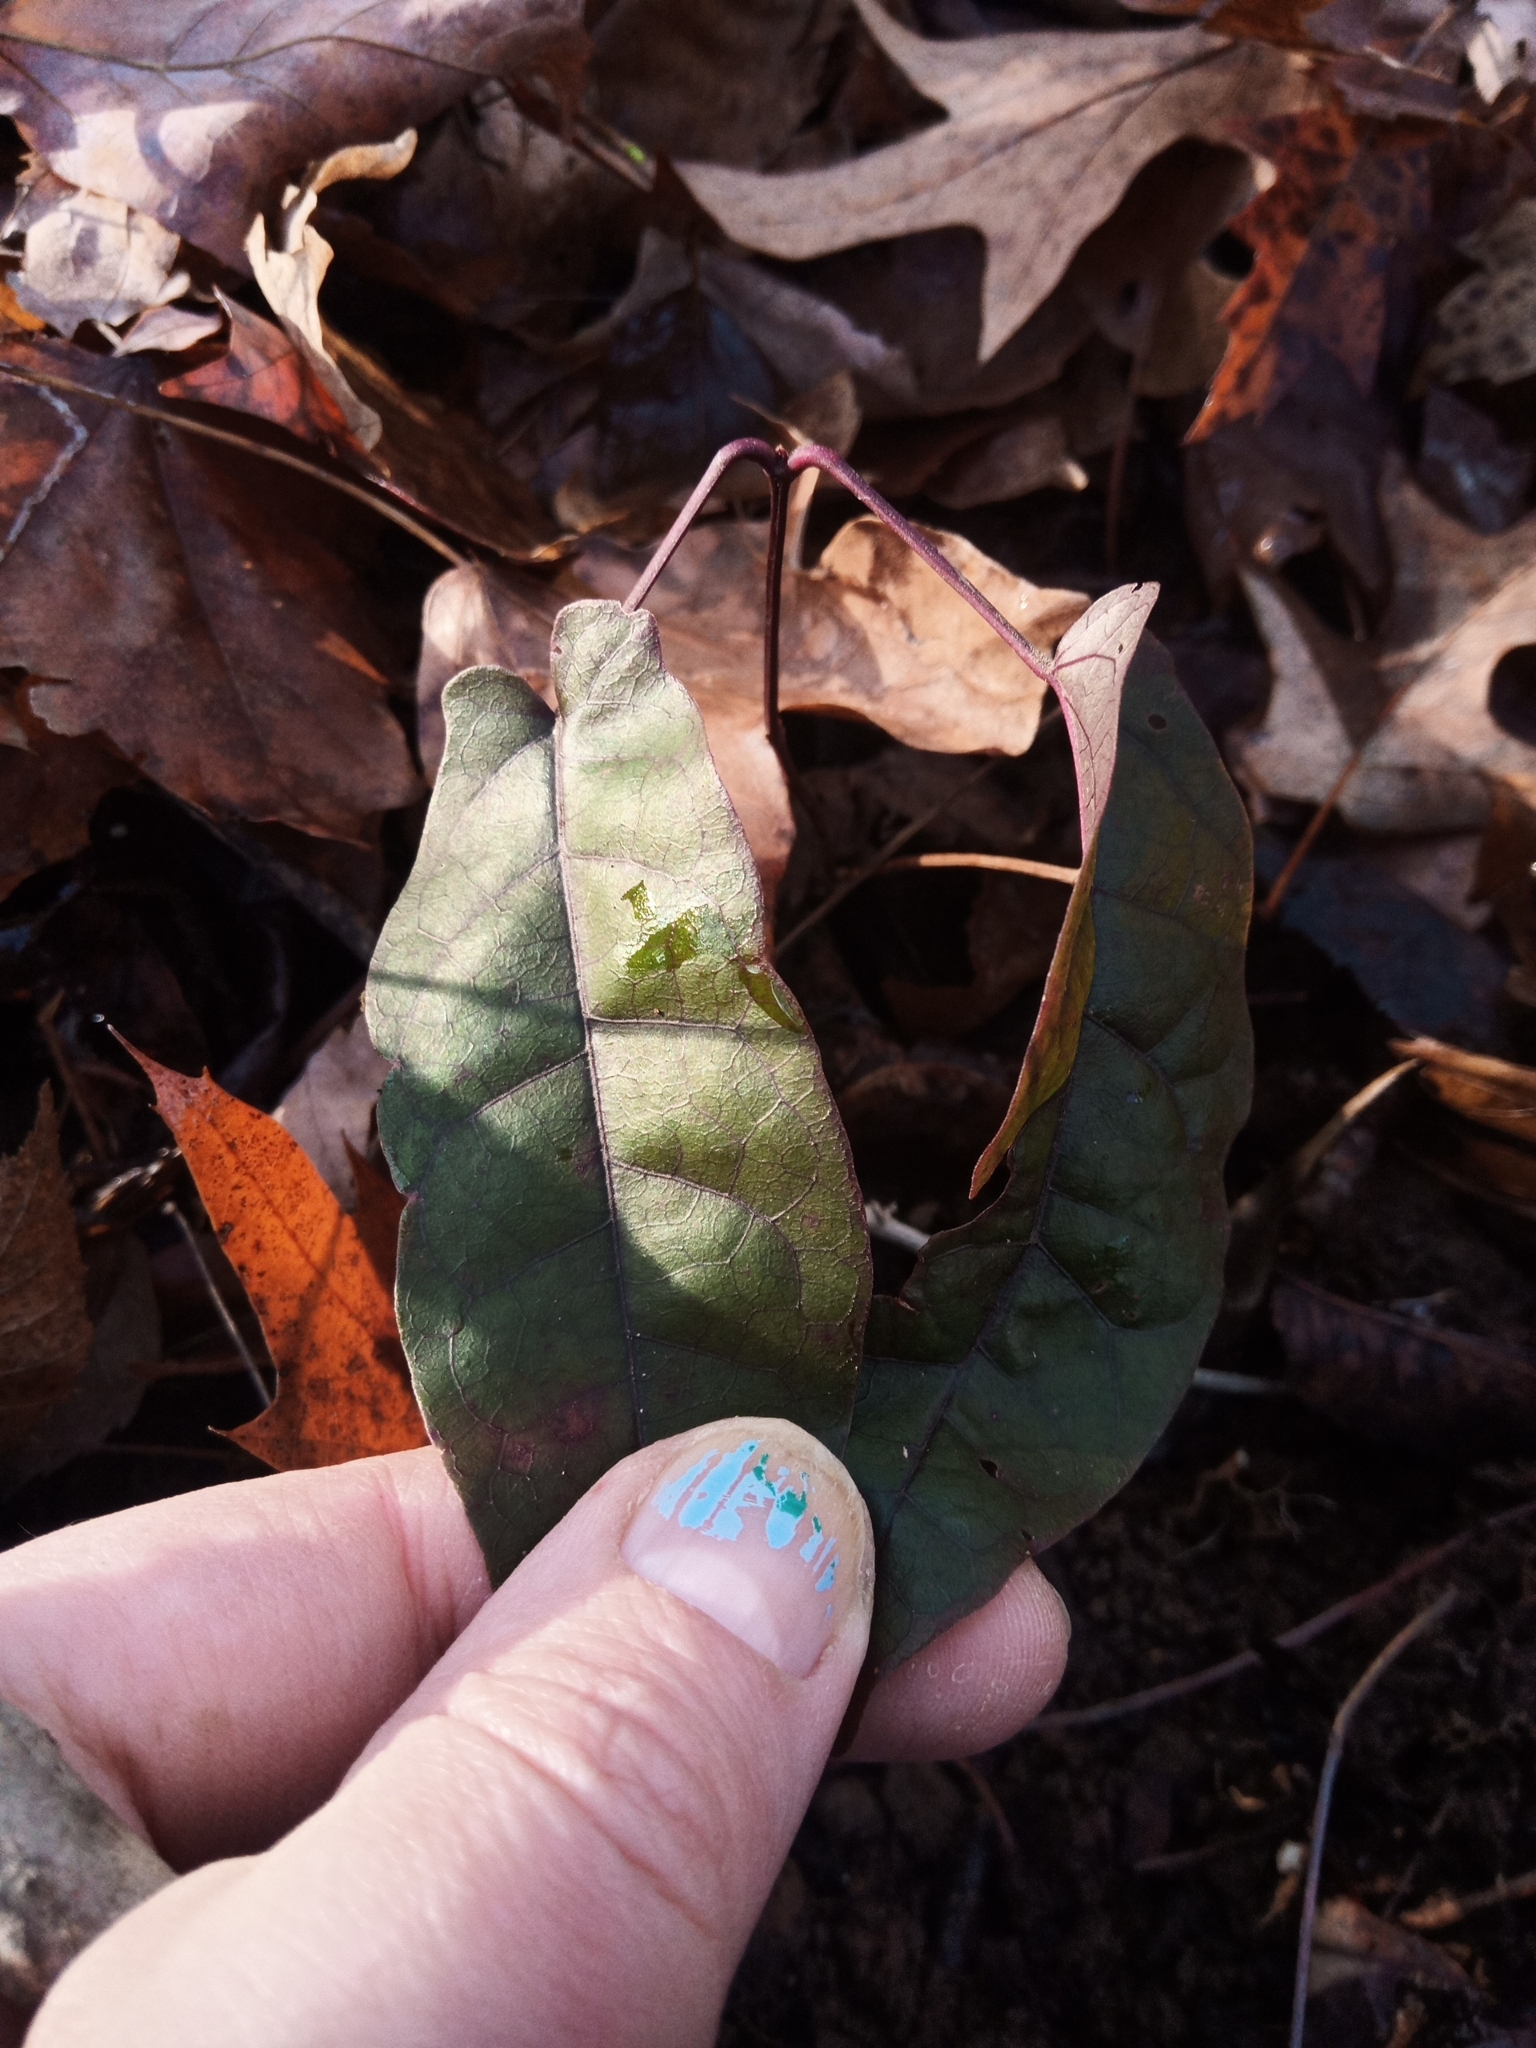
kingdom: Plantae
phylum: Tracheophyta
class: Magnoliopsida
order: Lamiales
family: Bignoniaceae
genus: Bignonia
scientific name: Bignonia capreolata
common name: Crossvine
